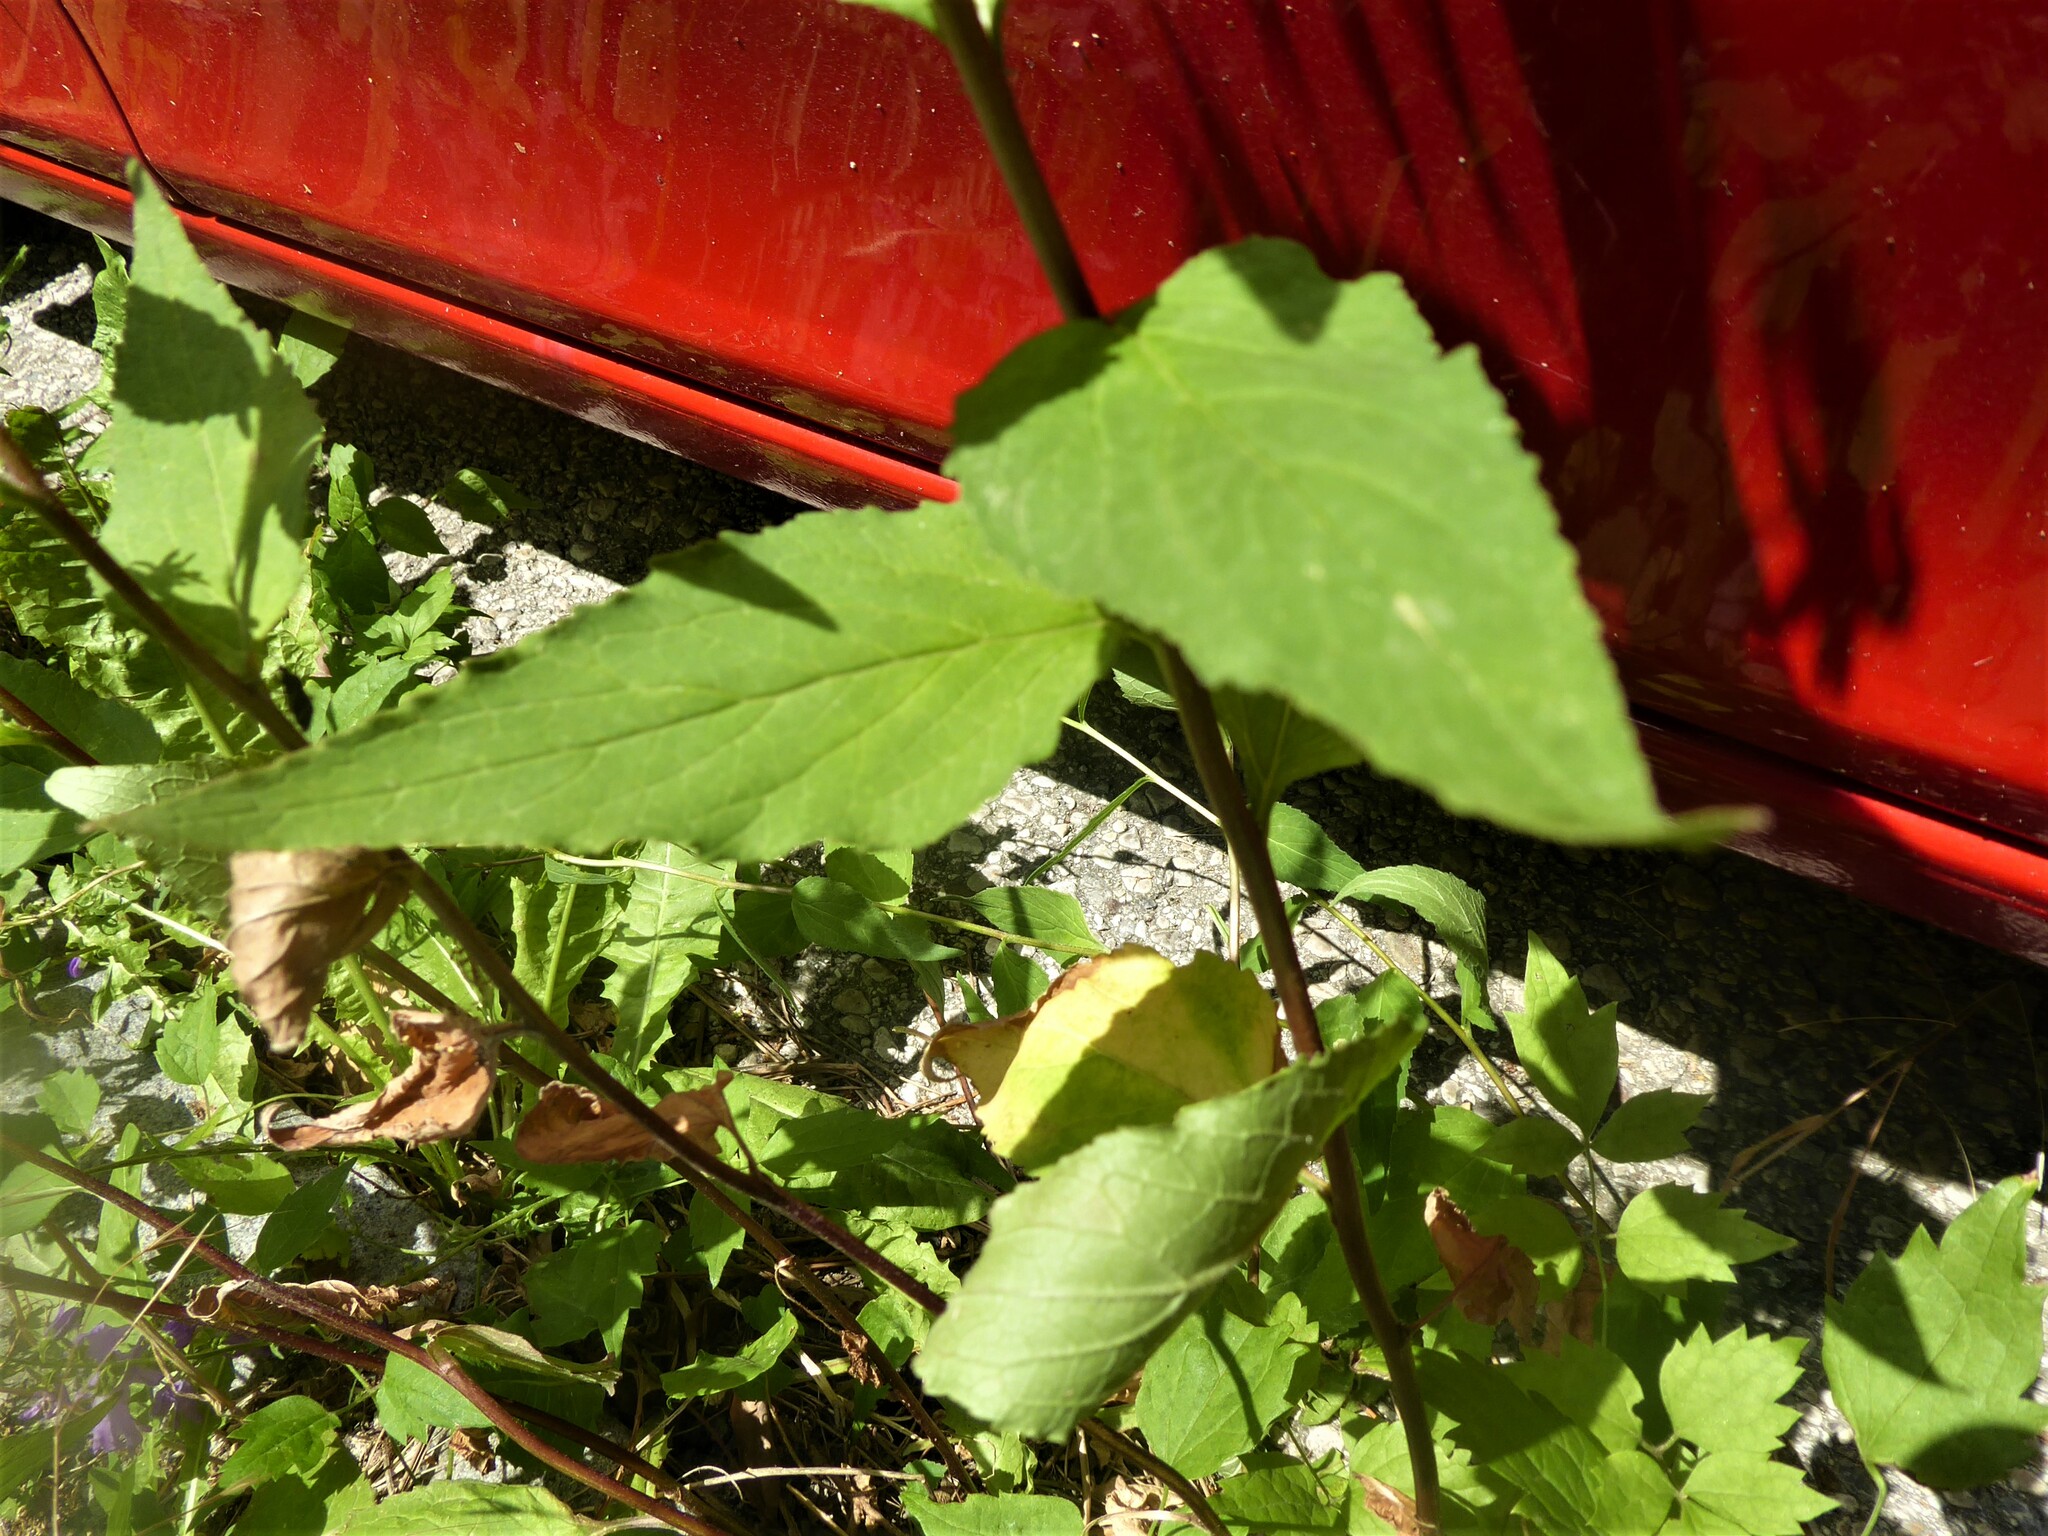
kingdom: Plantae
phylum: Tracheophyta
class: Magnoliopsida
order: Asterales
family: Campanulaceae
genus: Campanula
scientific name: Campanula rapunculoides
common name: Creeping bellflower
